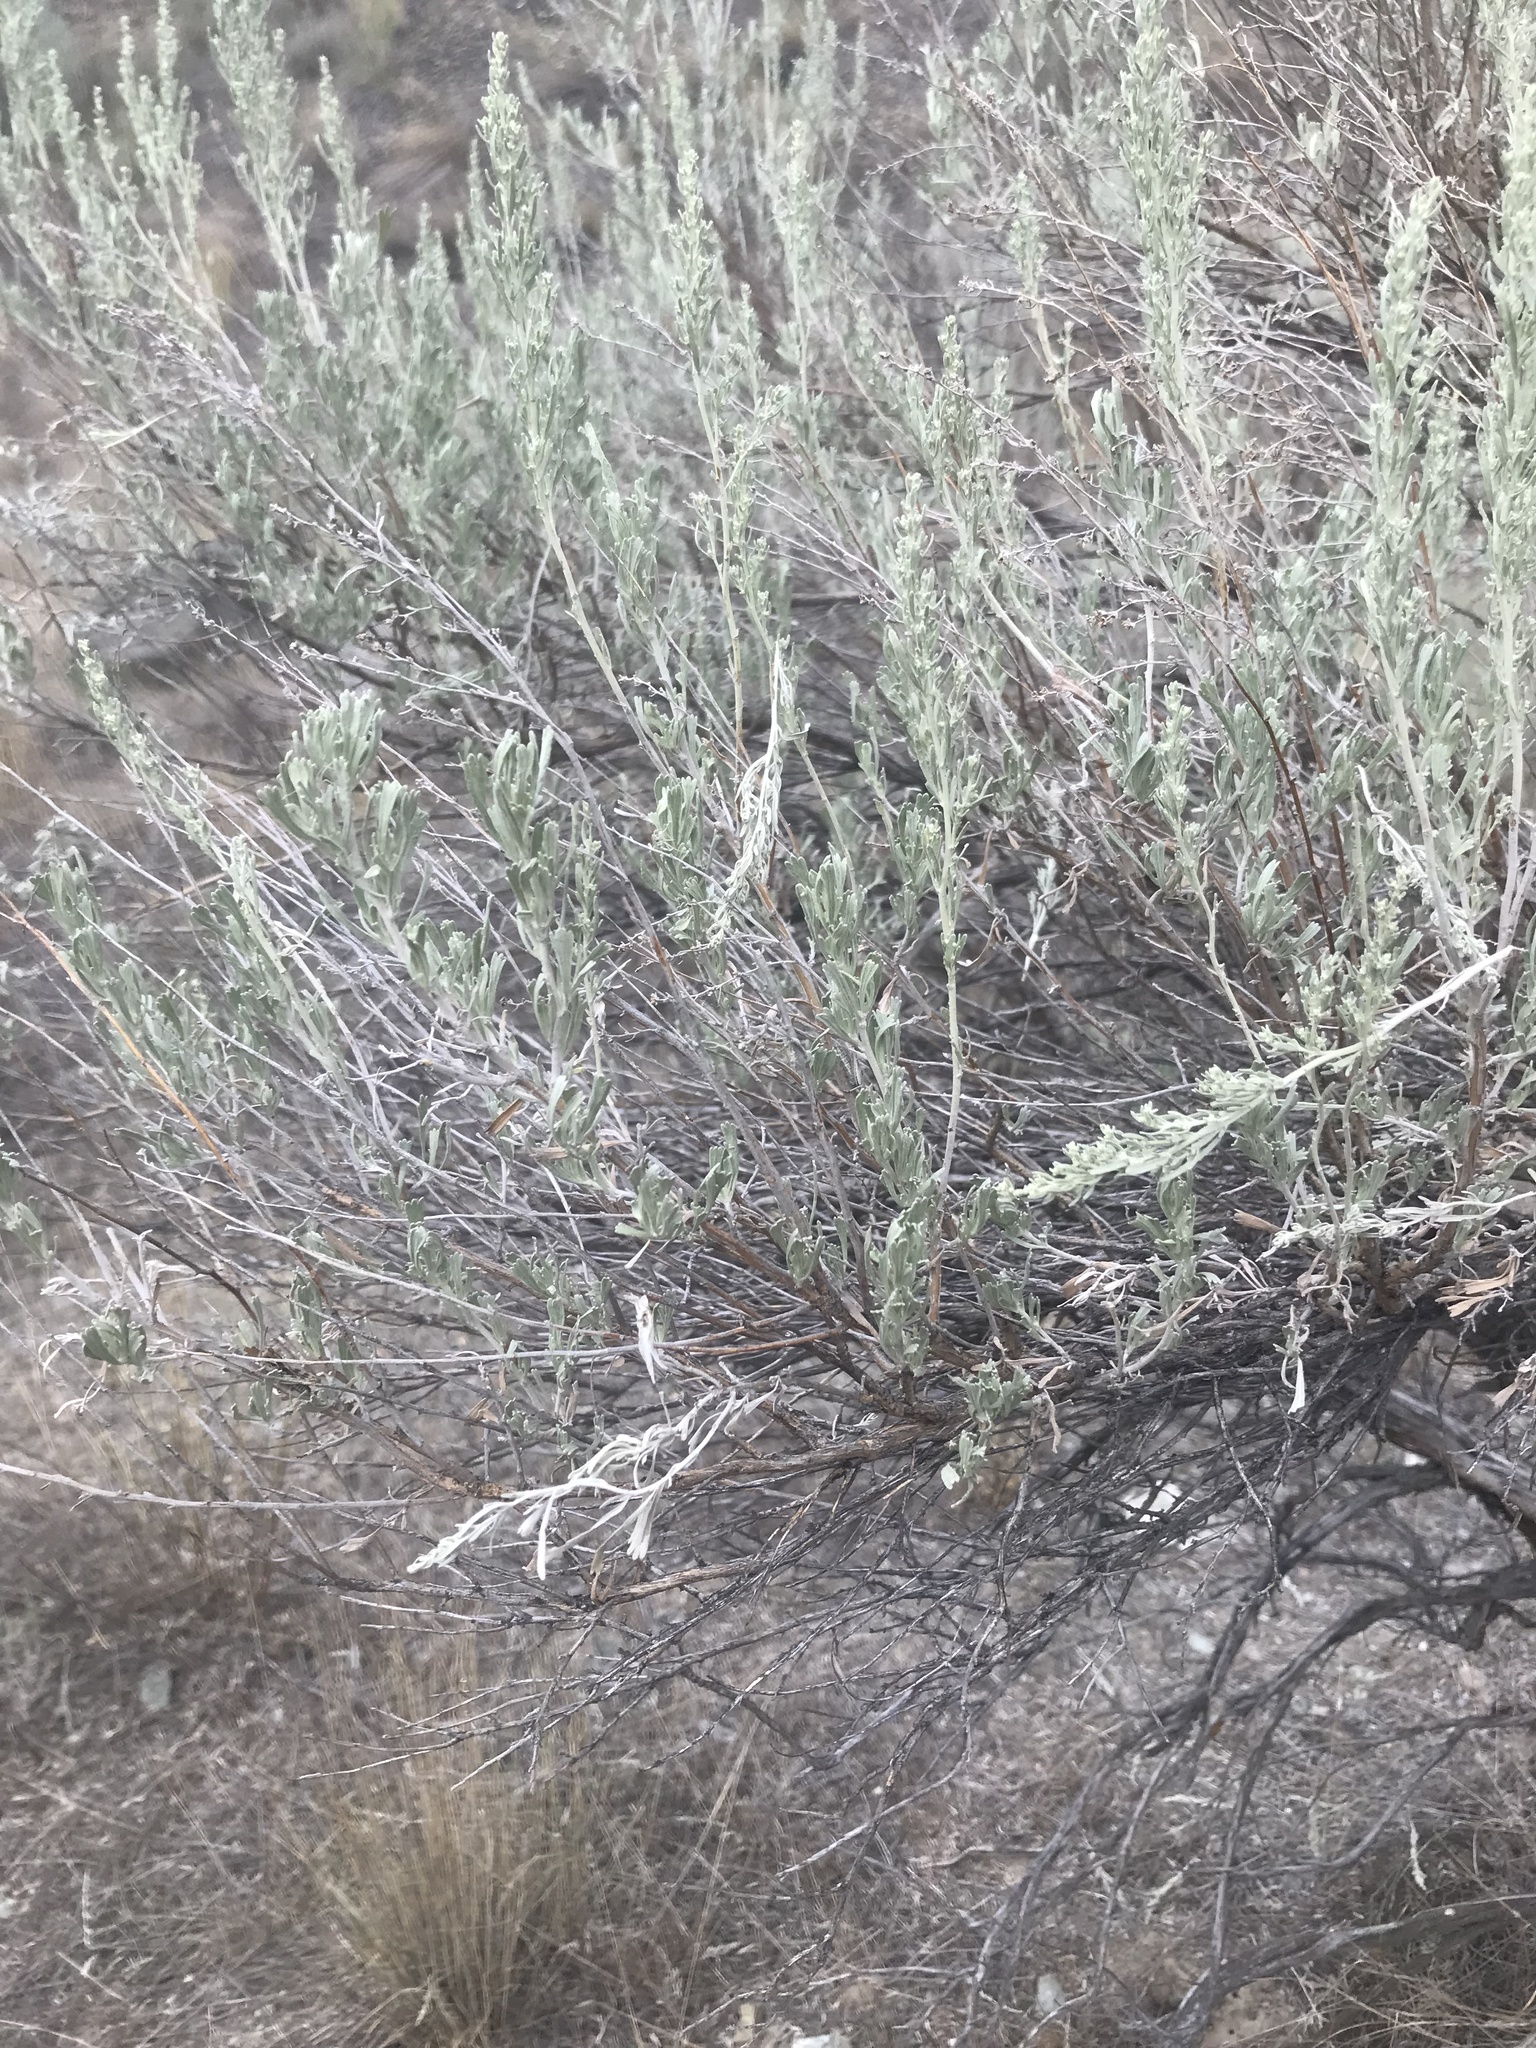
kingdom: Plantae
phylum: Tracheophyta
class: Magnoliopsida
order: Asterales
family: Asteraceae
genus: Artemisia
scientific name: Artemisia tridentata
